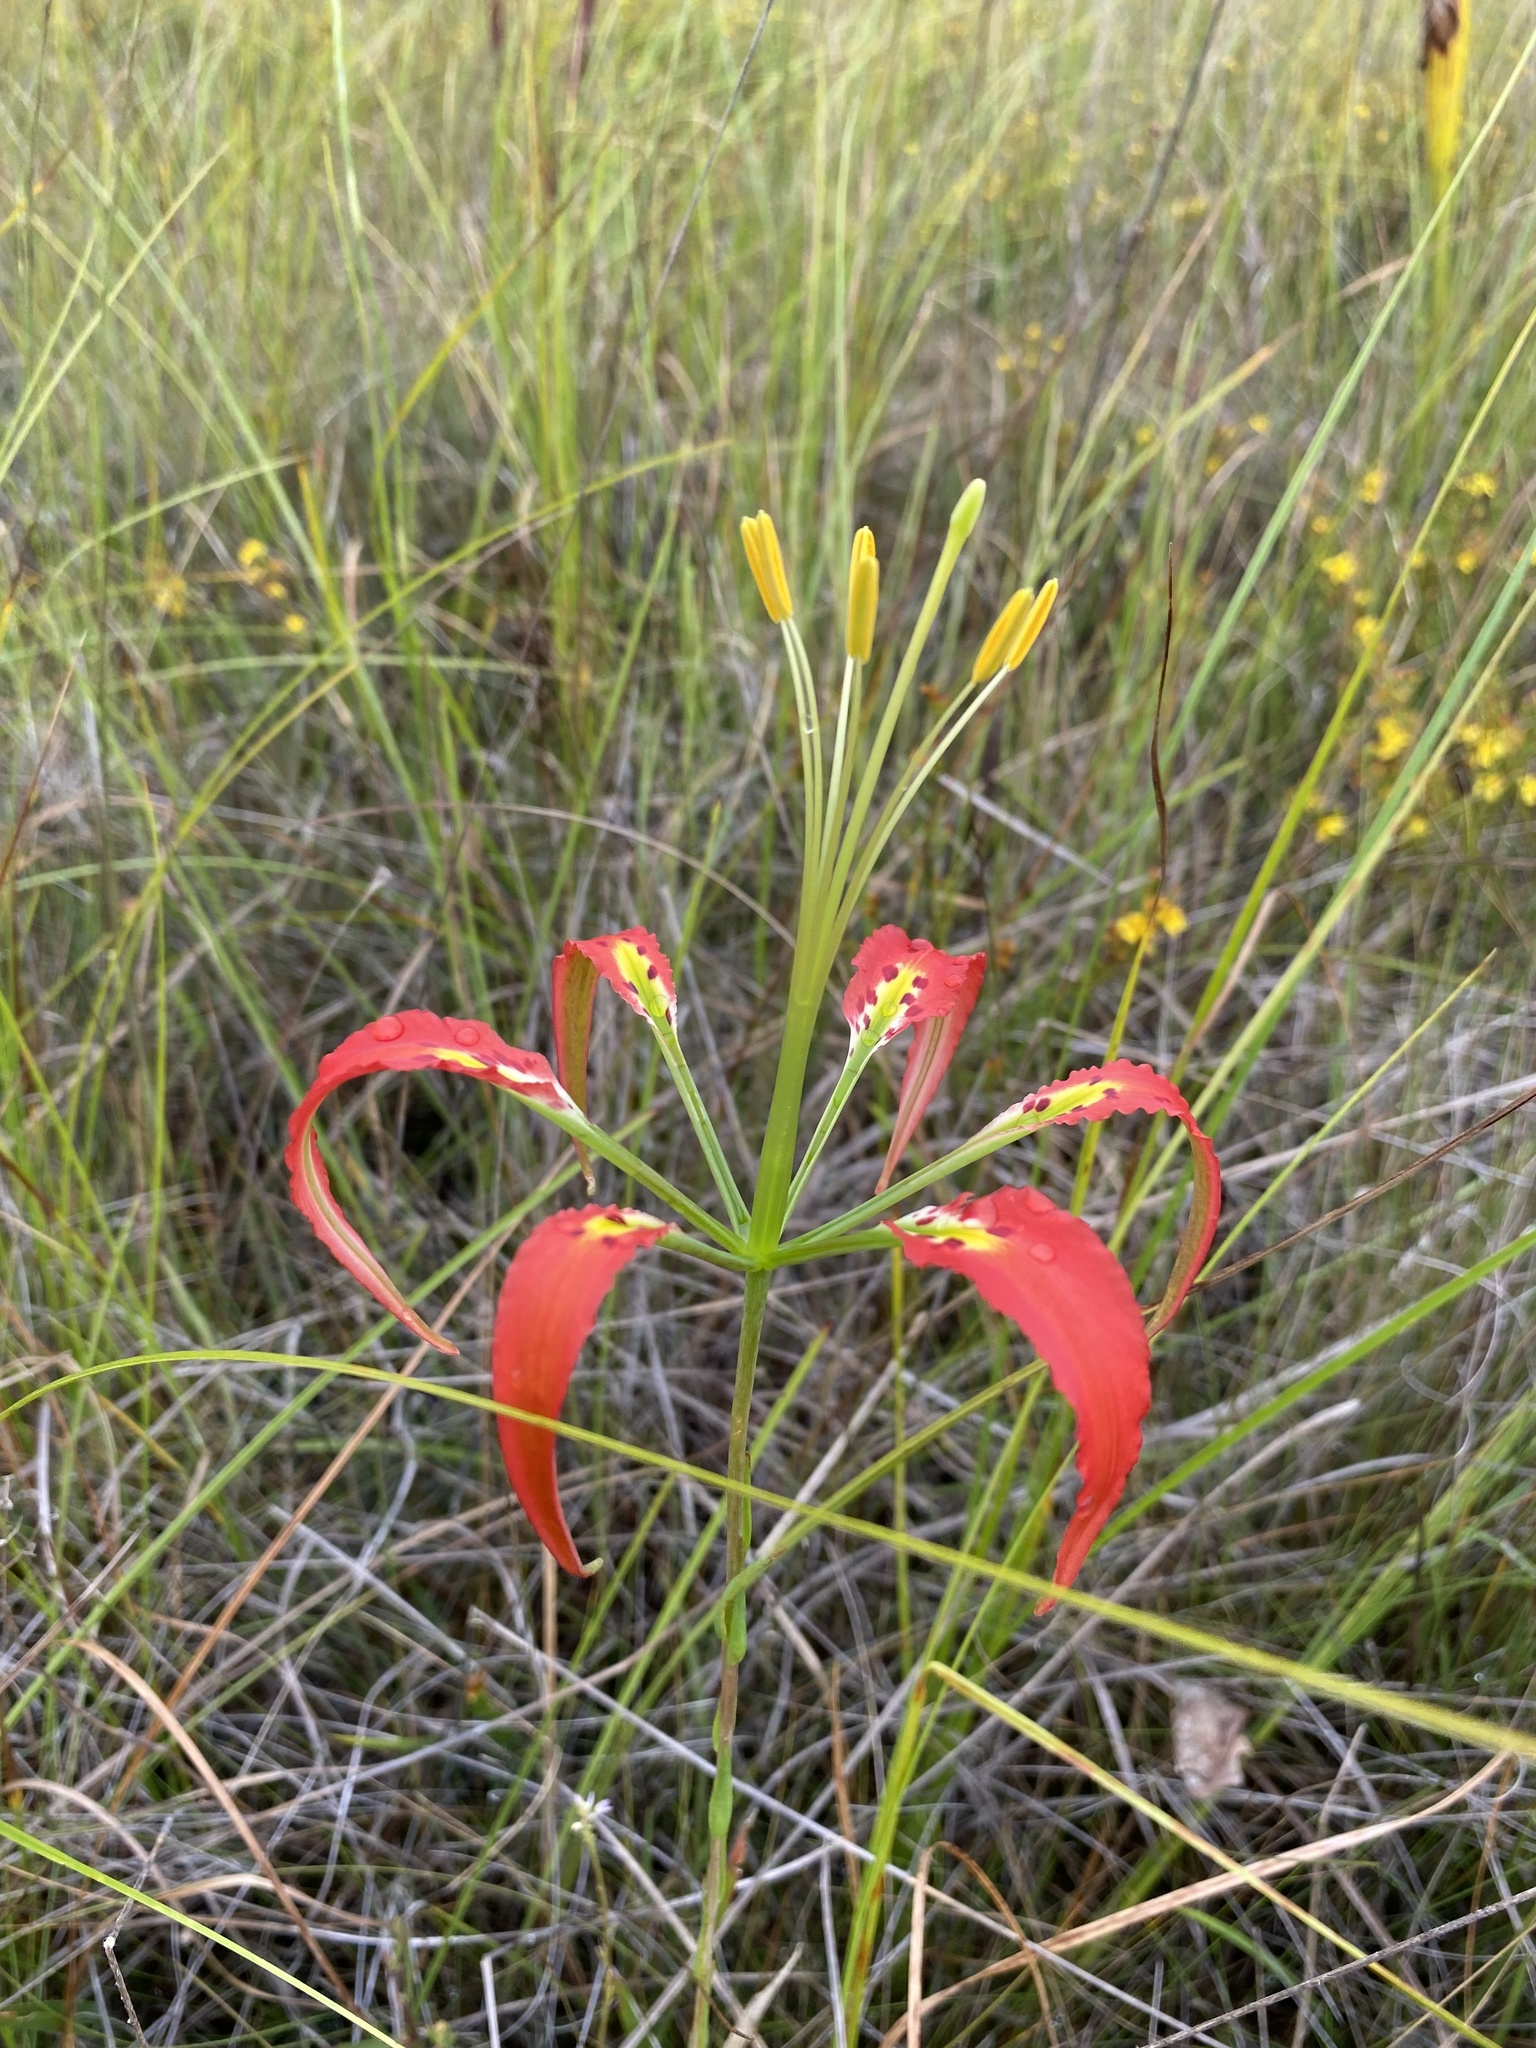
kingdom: Plantae
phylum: Tracheophyta
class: Liliopsida
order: Liliales
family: Liliaceae
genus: Lilium
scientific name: Lilium catesbaei
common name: Catesby's lily
